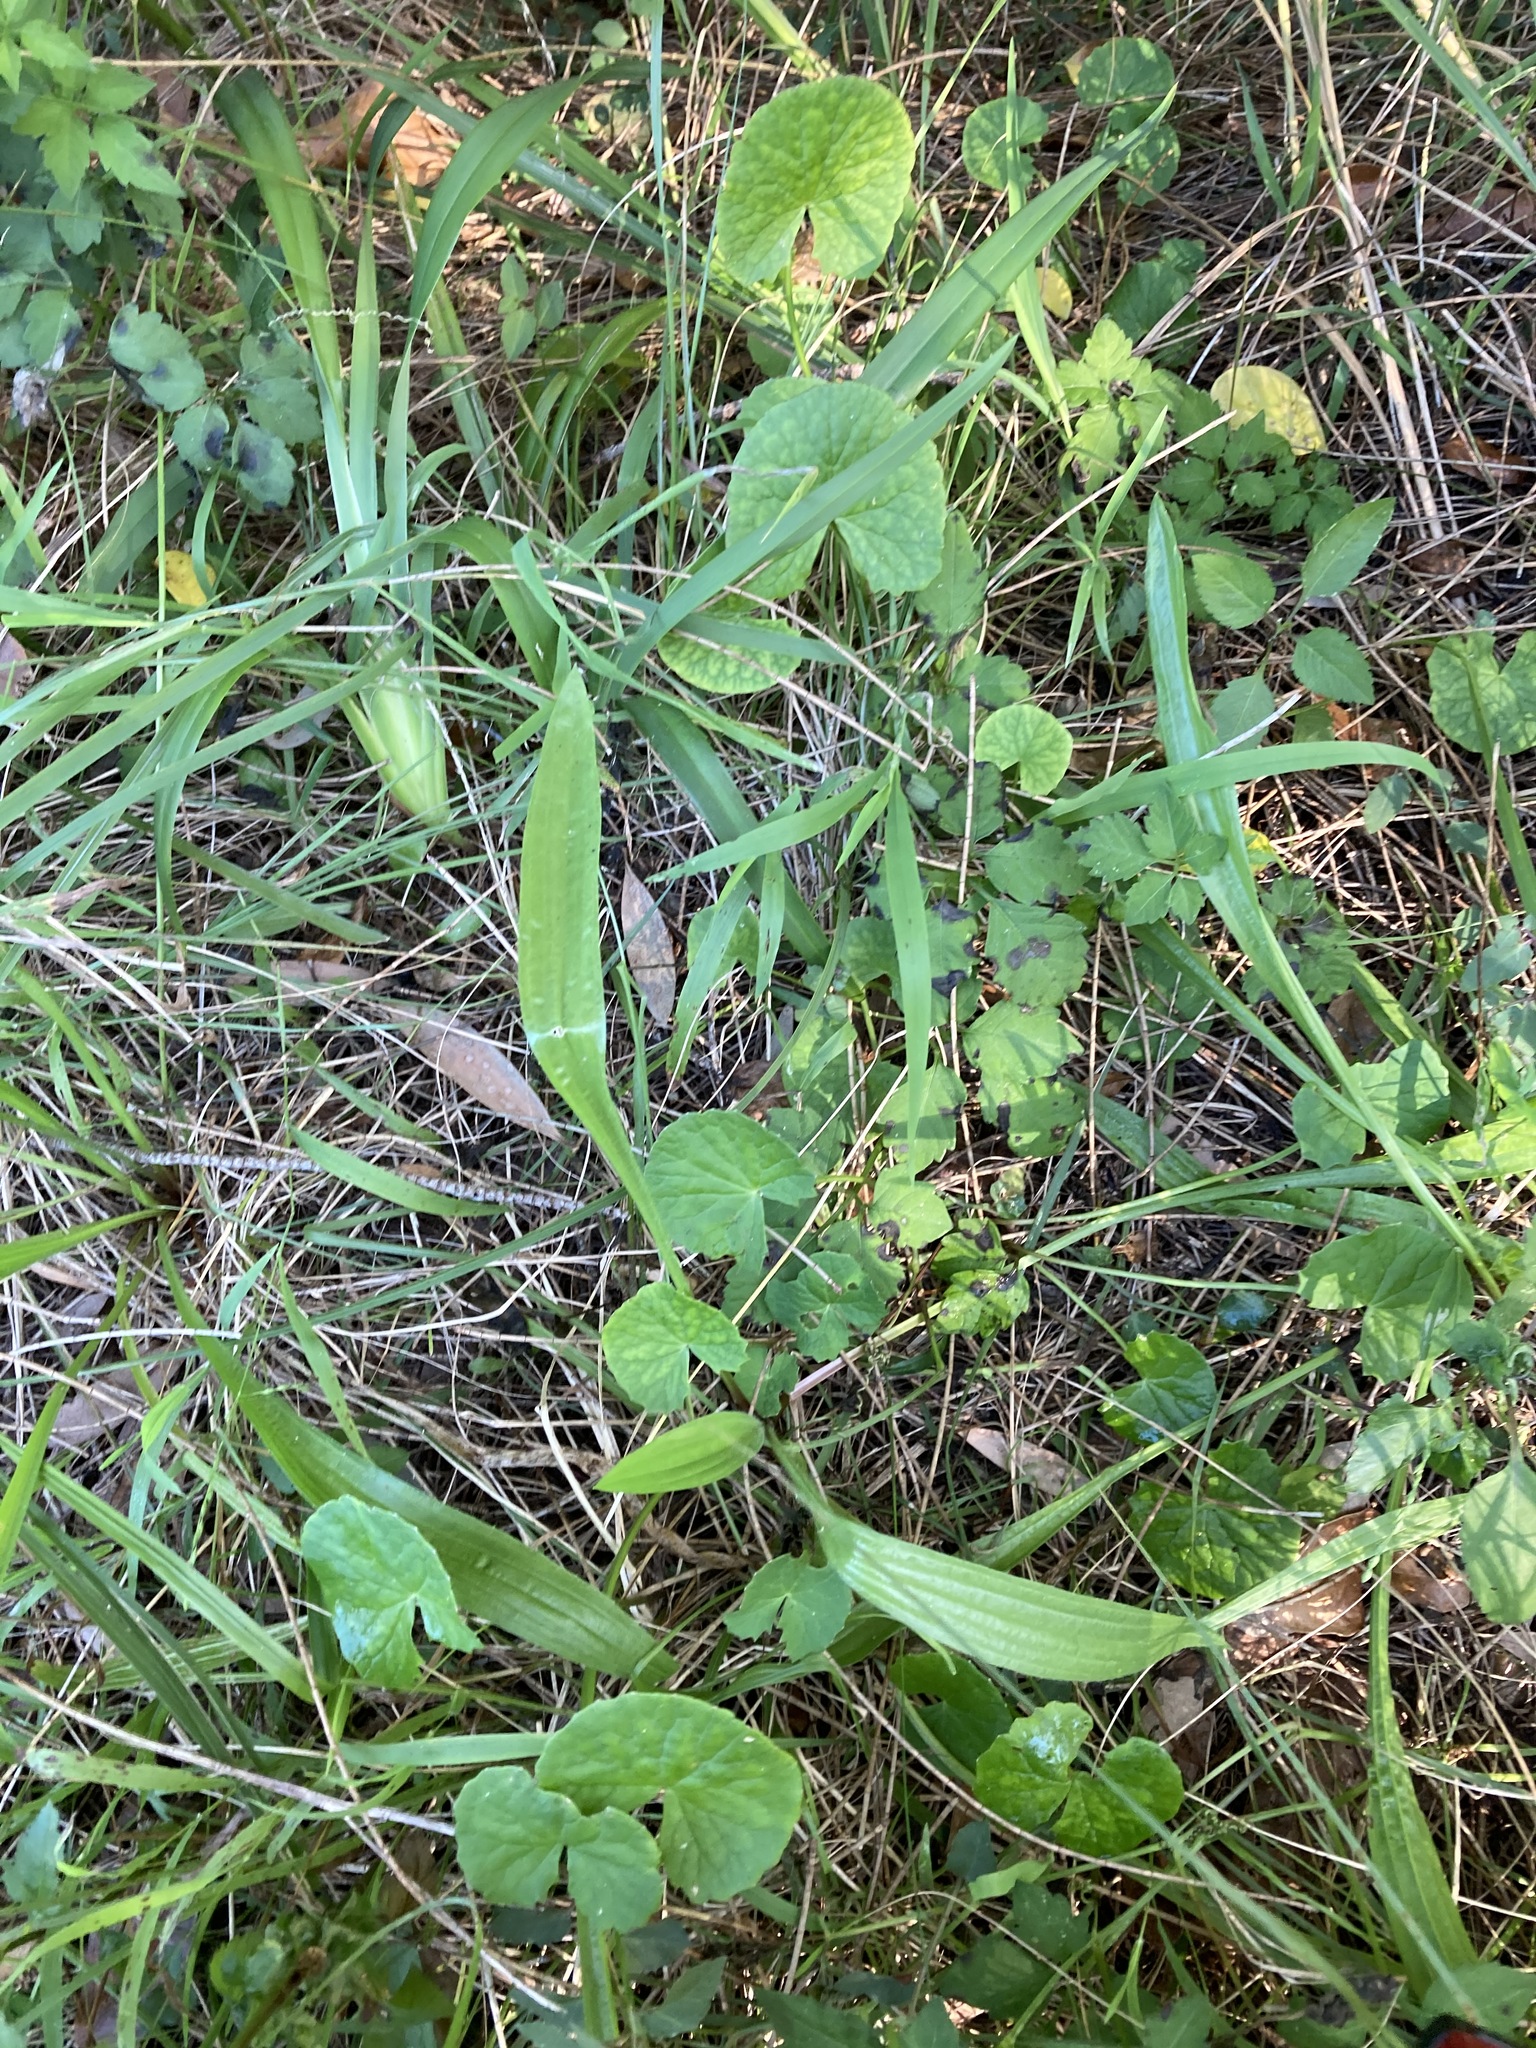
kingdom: Plantae
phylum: Tracheophyta
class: Magnoliopsida
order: Apiales
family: Apiaceae
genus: Centella
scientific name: Centella asiatica
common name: Spadeleaf
